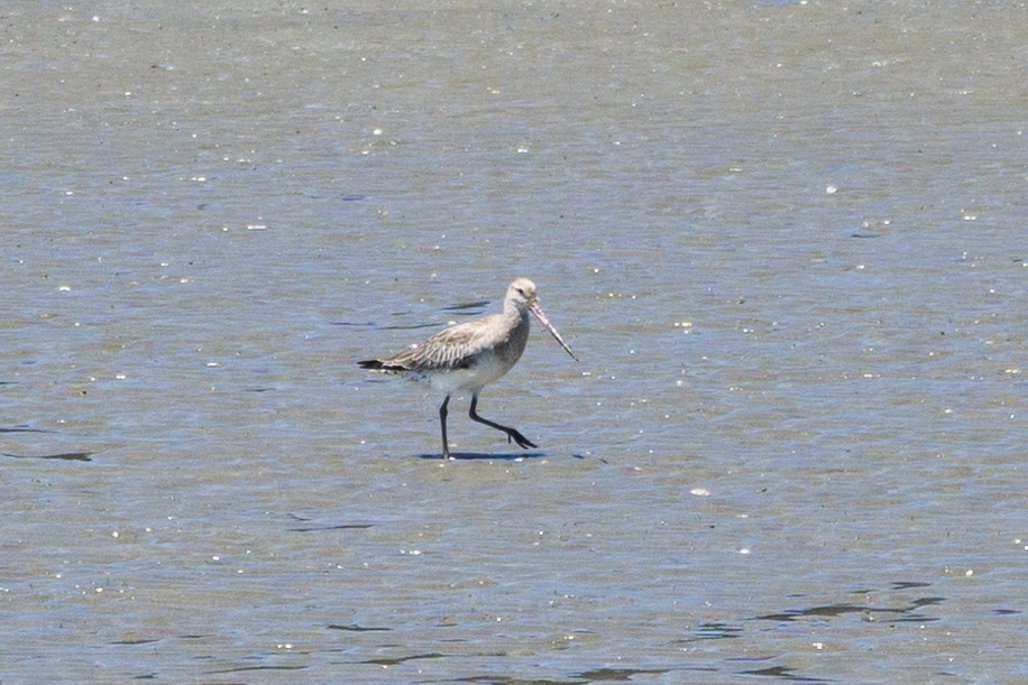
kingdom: Animalia
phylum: Chordata
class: Aves
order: Charadriiformes
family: Scolopacidae
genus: Limosa
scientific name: Limosa lapponica
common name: Bar-tailed godwit
